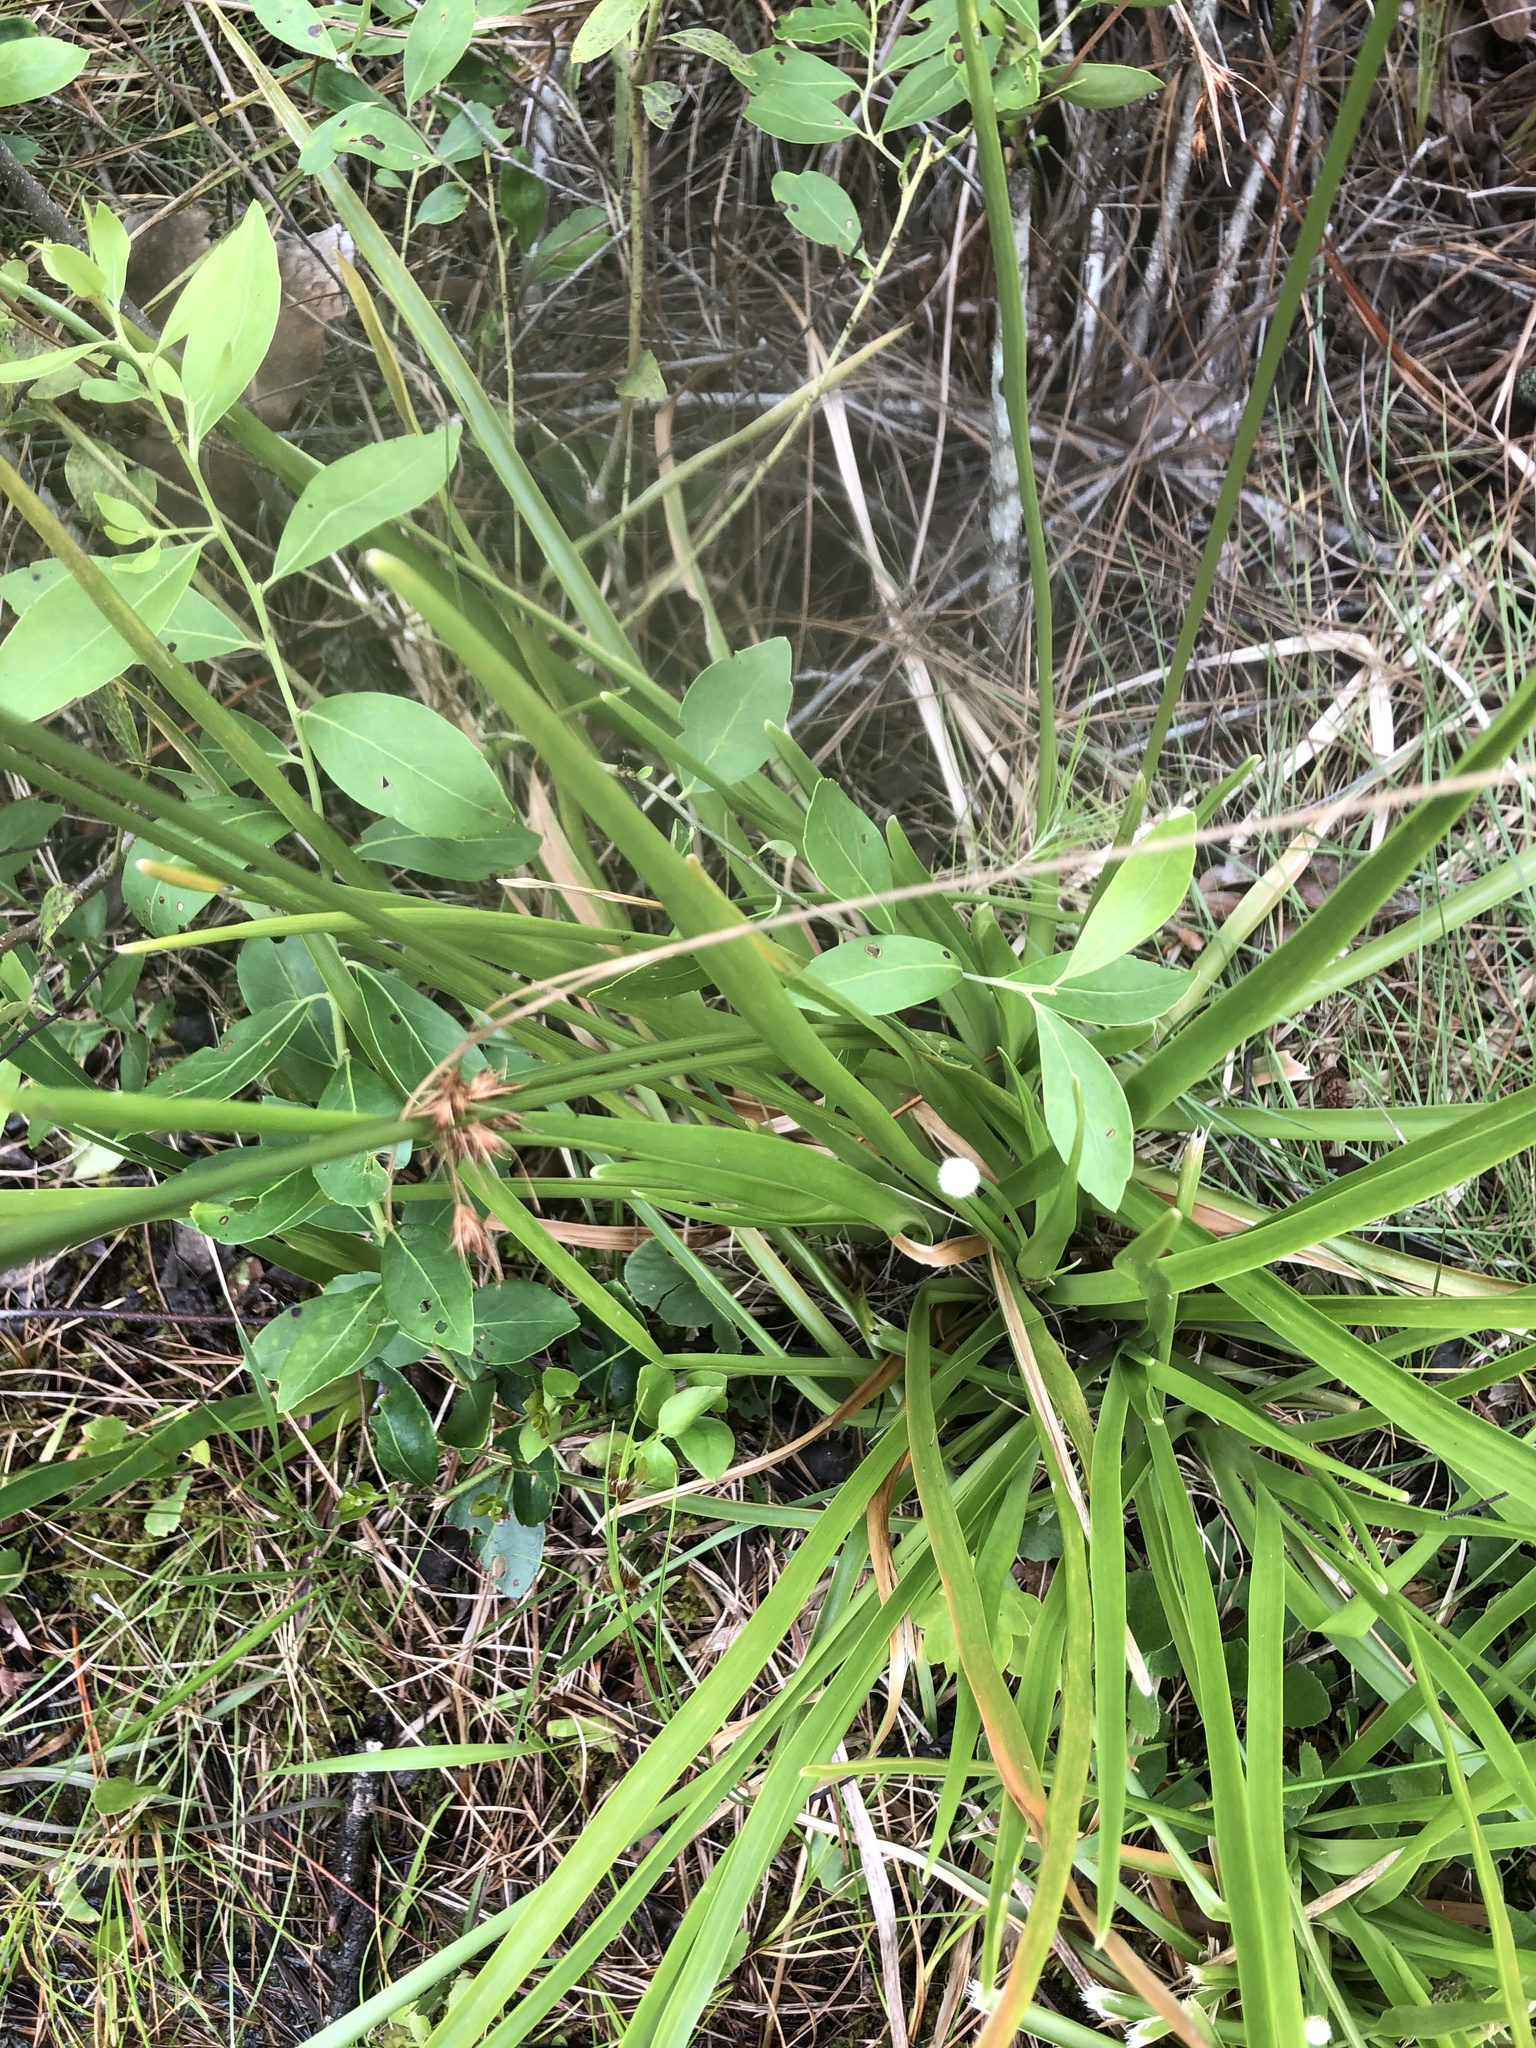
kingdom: Plantae
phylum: Tracheophyta
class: Liliopsida
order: Poales
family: Eriocaulaceae
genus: Eriocaulon
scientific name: Eriocaulon decangulare
